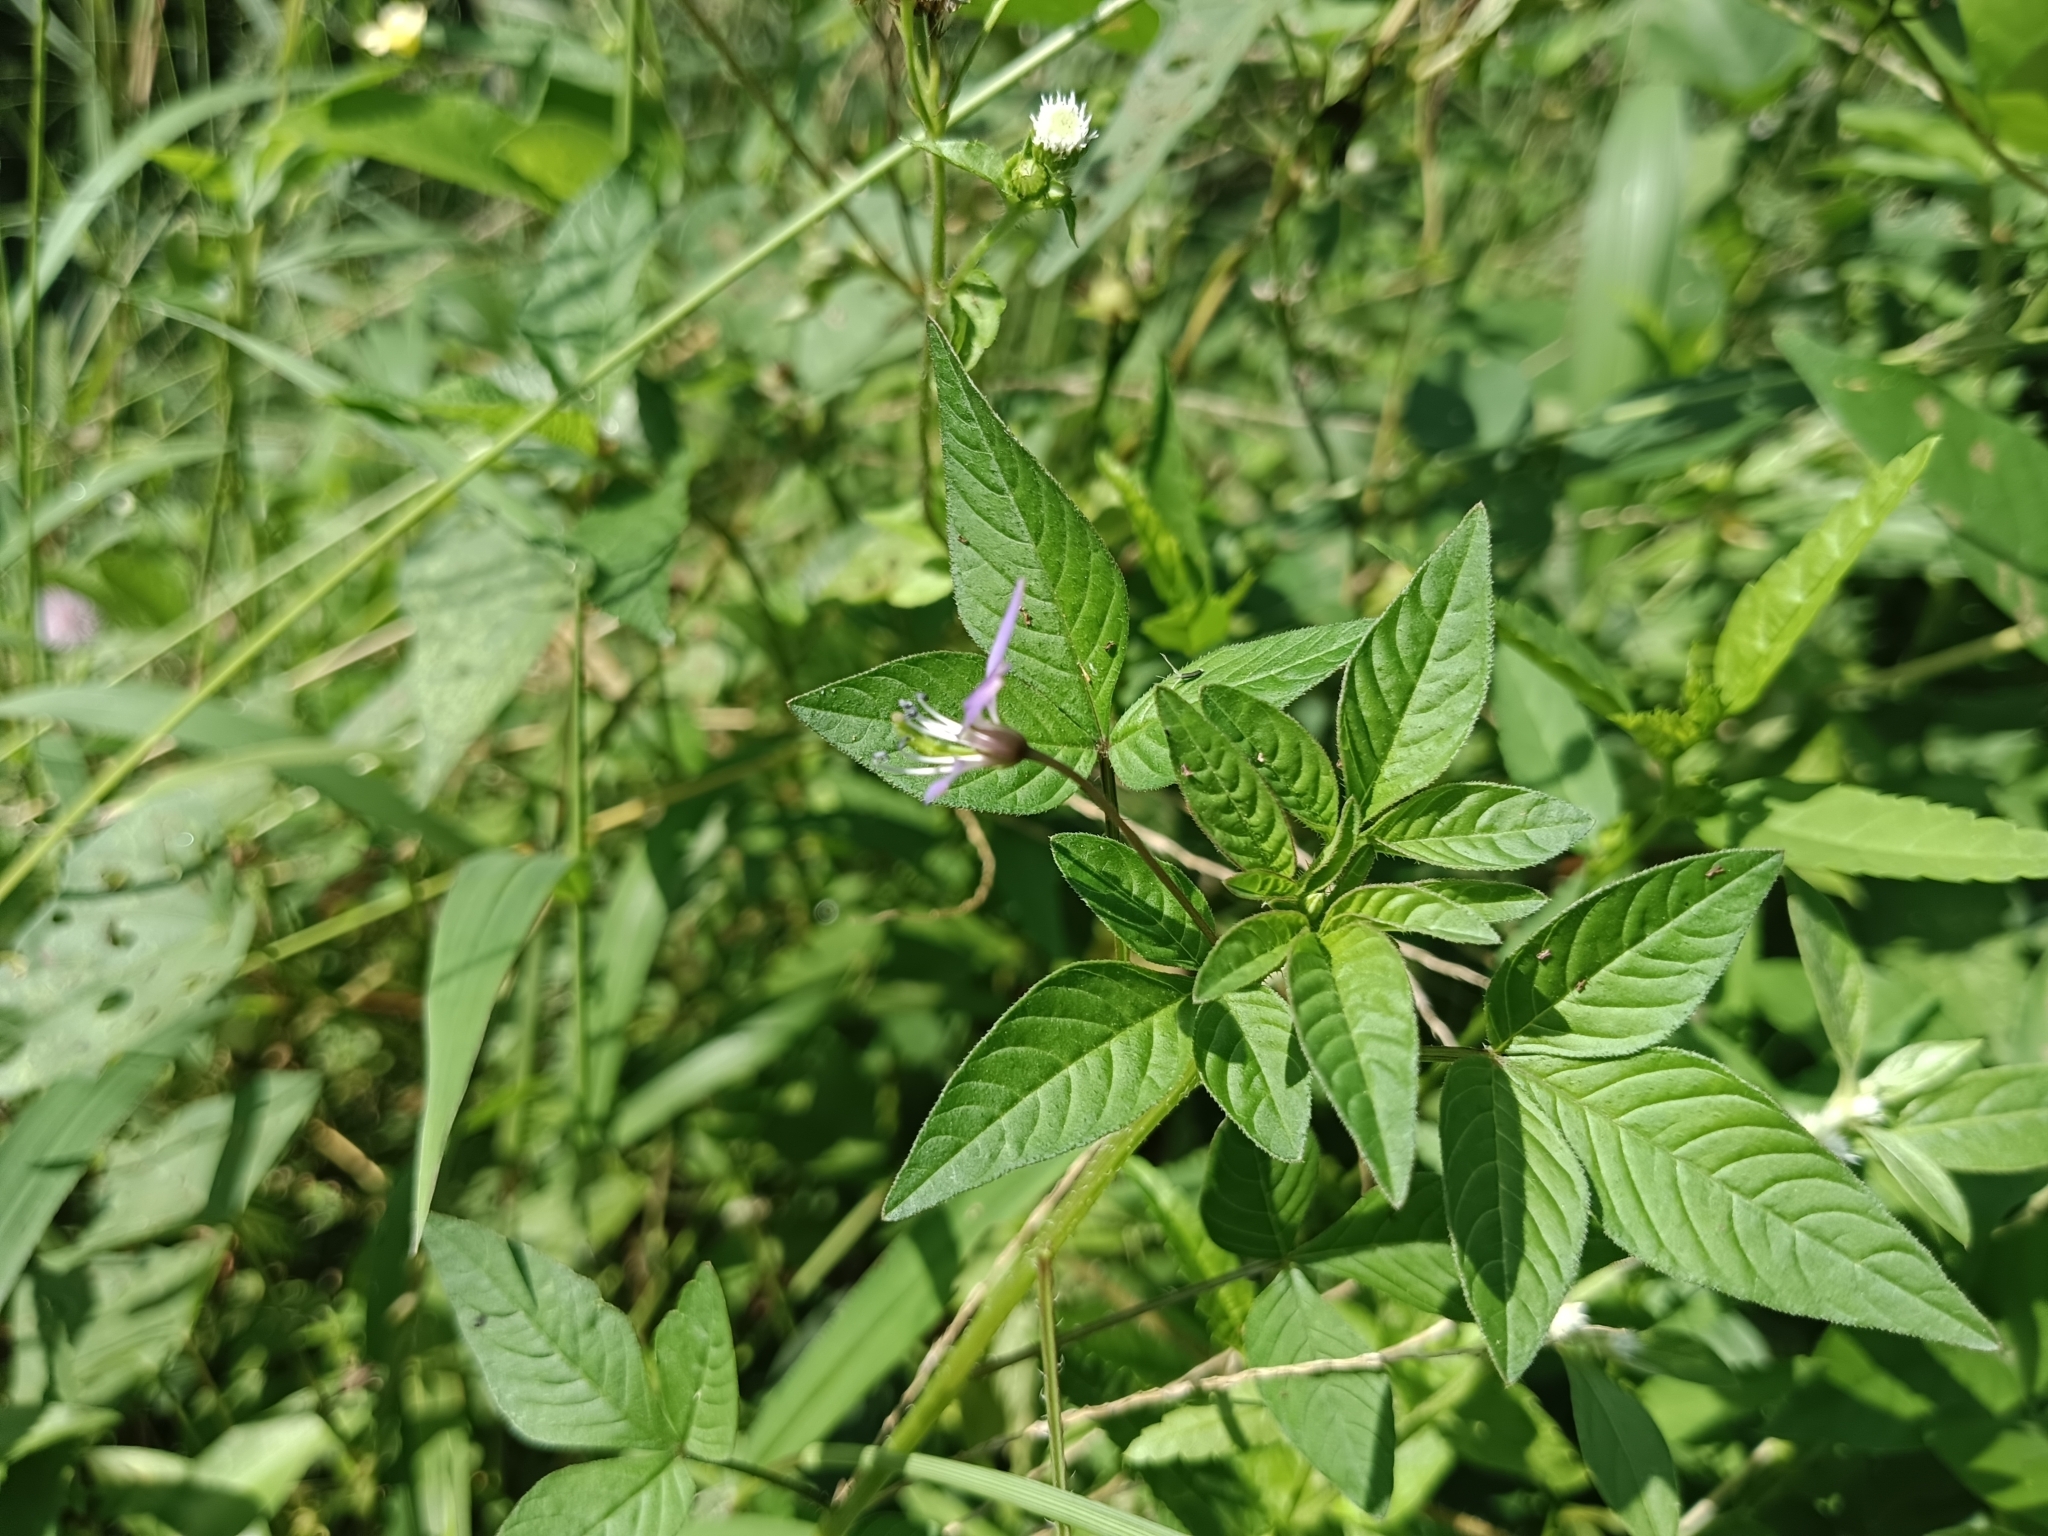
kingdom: Plantae
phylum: Tracheophyta
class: Magnoliopsida
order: Brassicales
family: Cleomaceae
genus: Sieruela
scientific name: Sieruela rutidosperma
